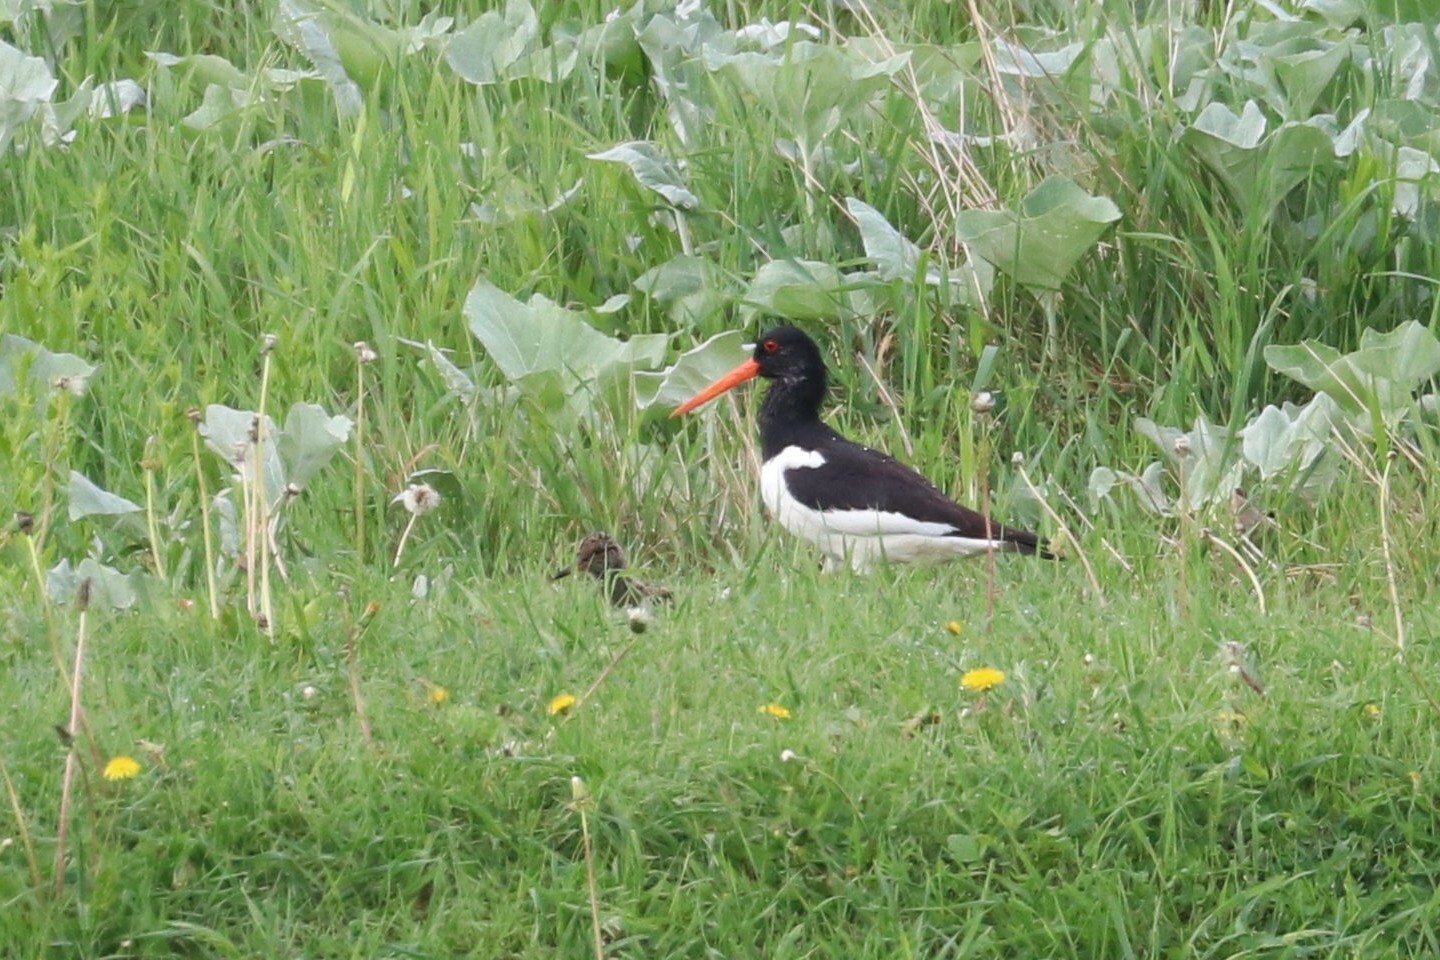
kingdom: Animalia
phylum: Chordata
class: Aves
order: Charadriiformes
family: Haematopodidae
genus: Haematopus
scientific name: Haematopus ostralegus
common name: Eurasian oystercatcher
